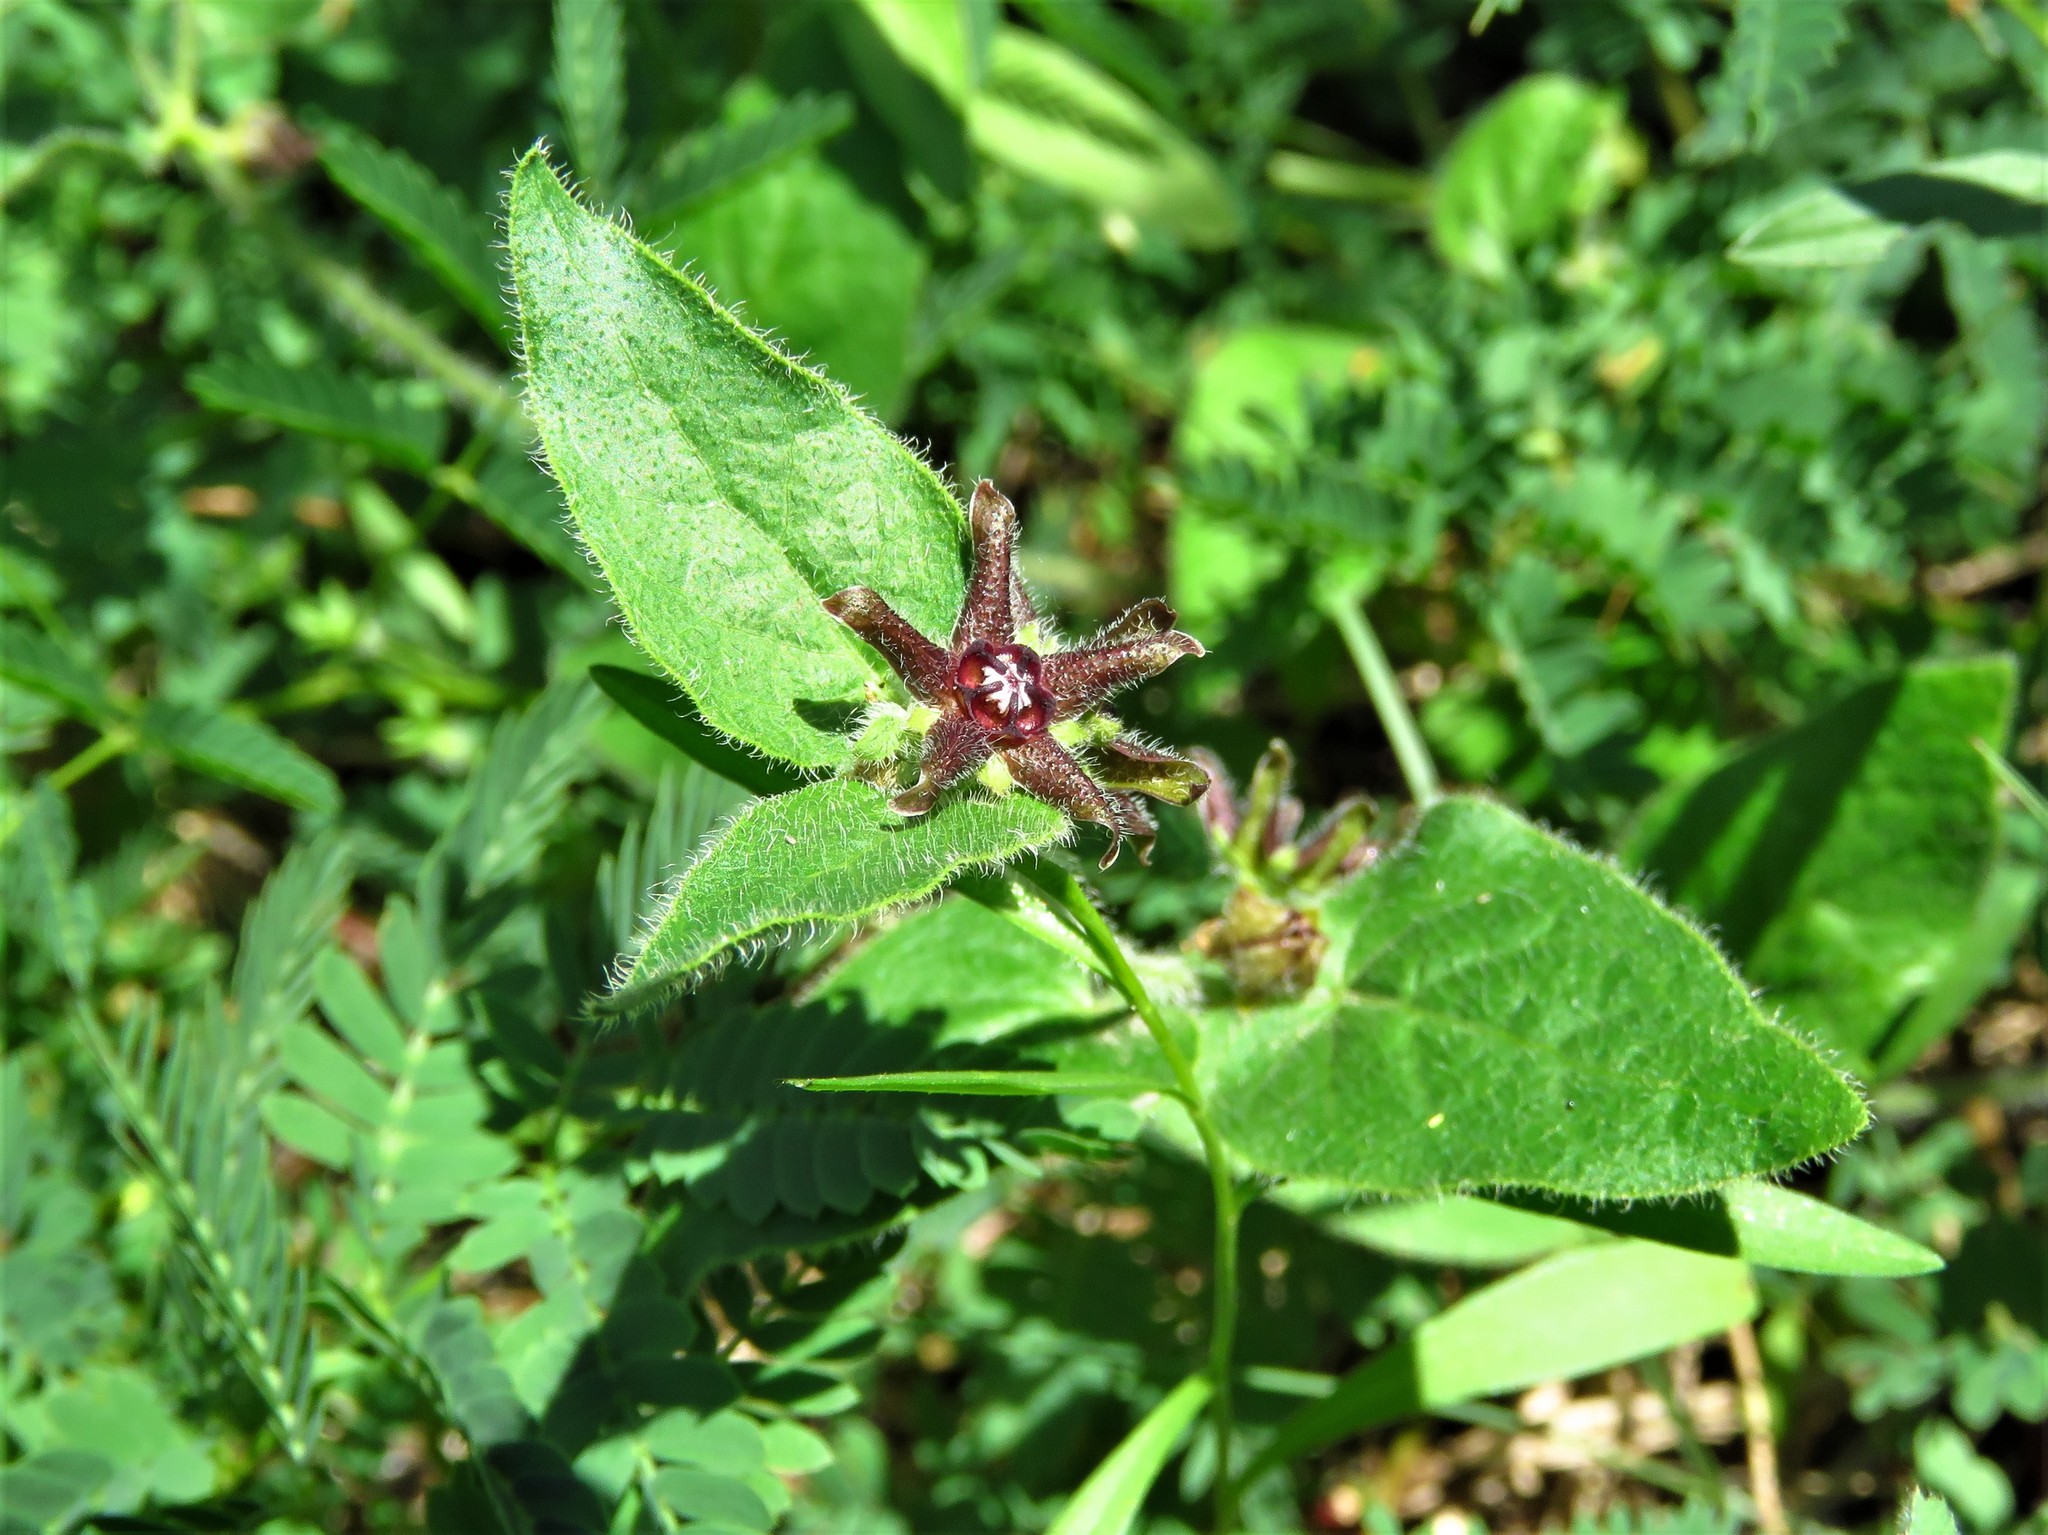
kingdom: Plantae
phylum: Tracheophyta
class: Magnoliopsida
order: Gentianales
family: Apocynaceae
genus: Chthamalia
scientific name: Chthamalia biflora
